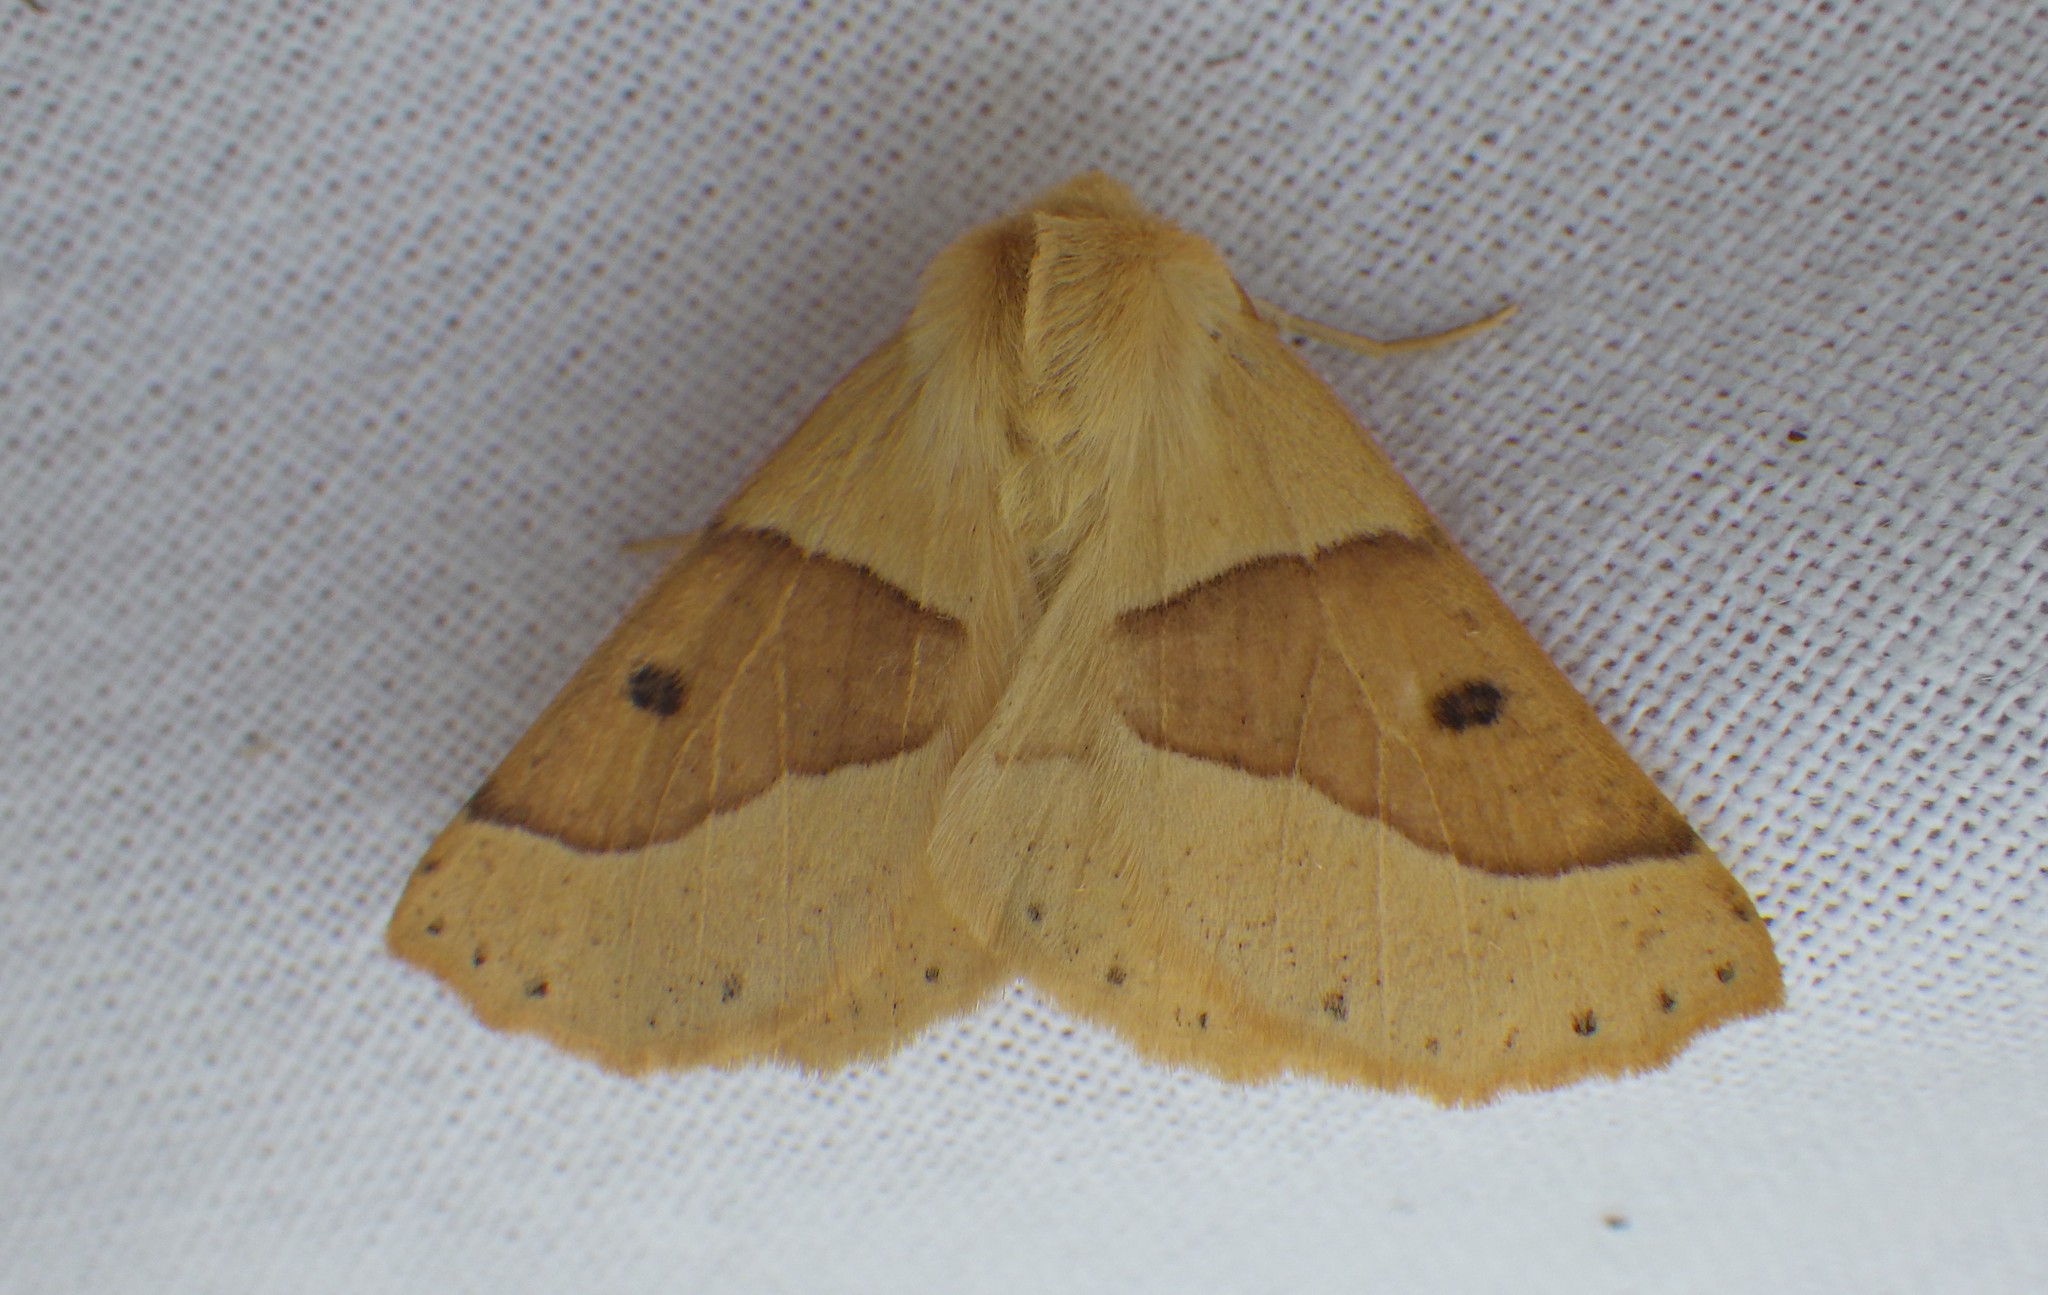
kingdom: Animalia
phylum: Arthropoda
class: Insecta
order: Lepidoptera
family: Geometridae
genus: Crocallis
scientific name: Crocallis elinguaria
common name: Scalloped oak
